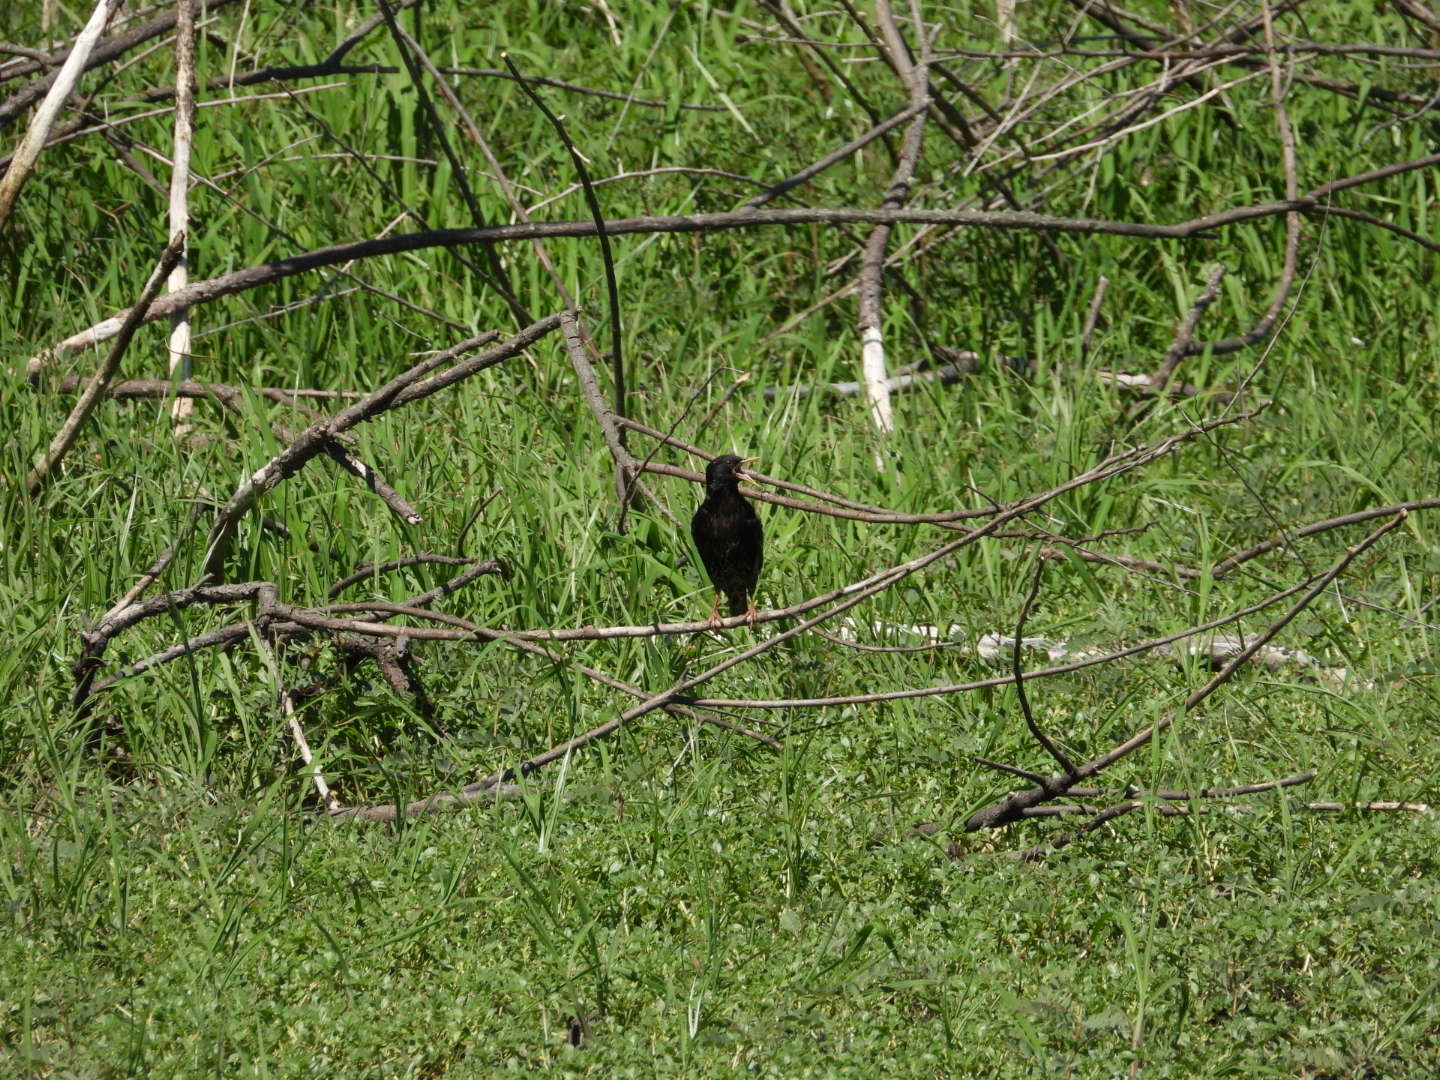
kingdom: Animalia
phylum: Chordata
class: Aves
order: Passeriformes
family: Sturnidae
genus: Sturnus
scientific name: Sturnus vulgaris
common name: Common starling
